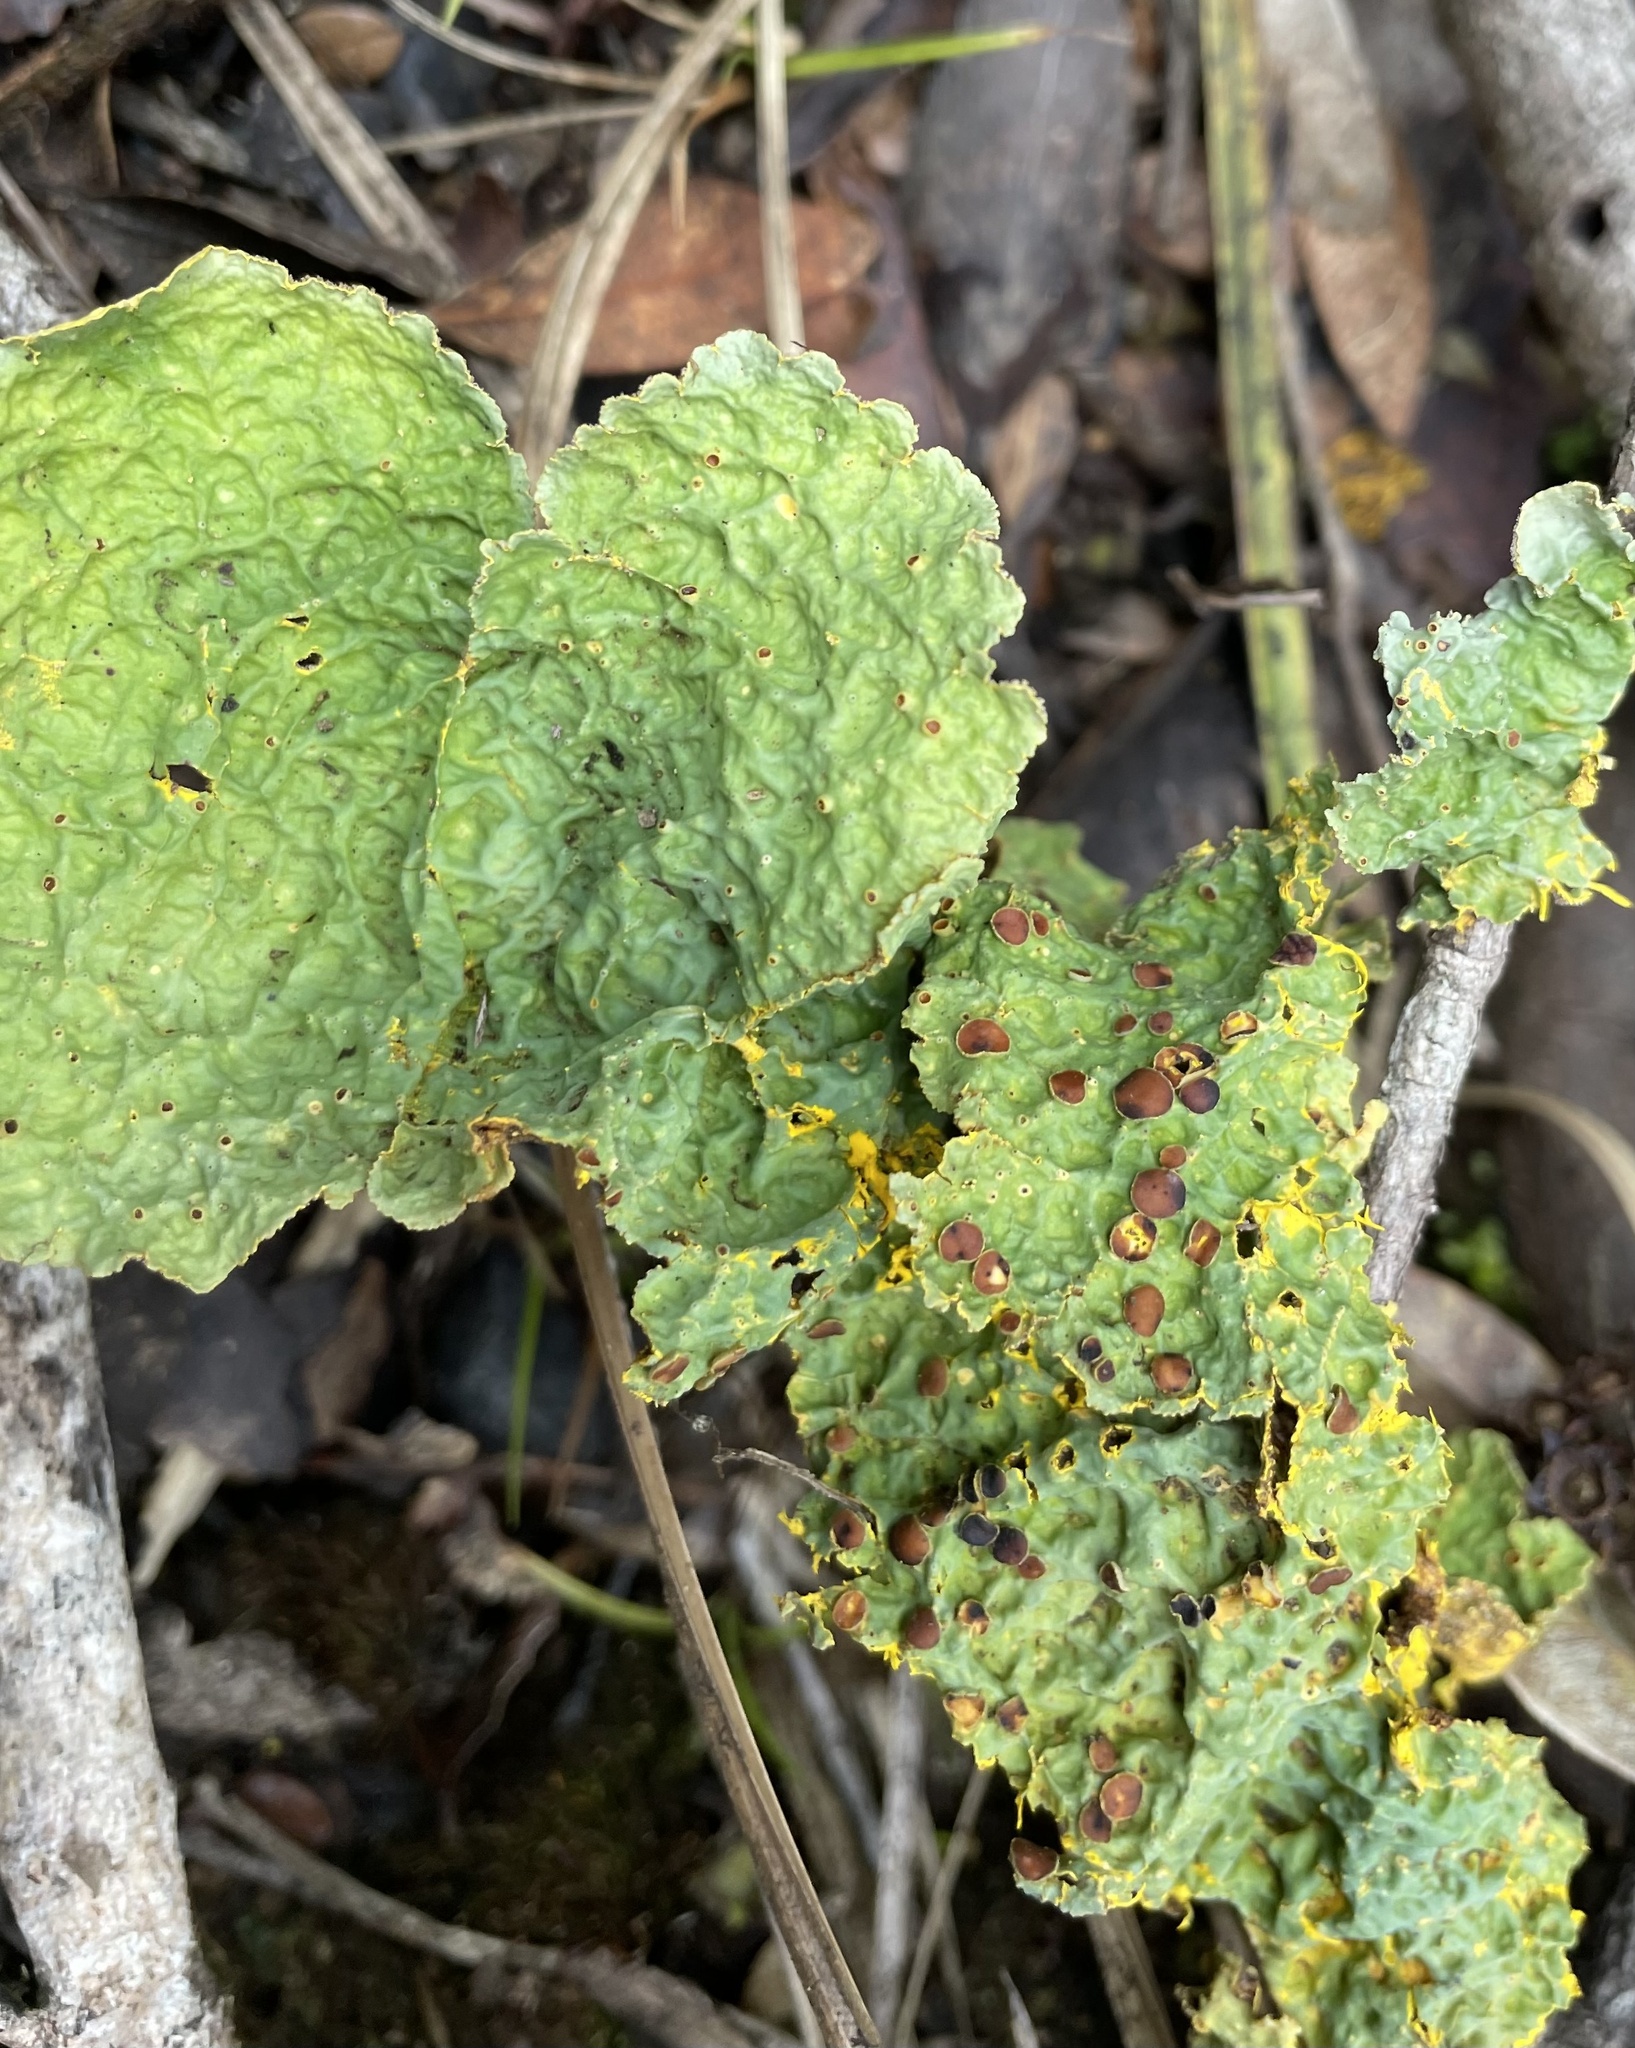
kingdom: Fungi
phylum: Ascomycota
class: Lecanoromycetes
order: Peltigerales
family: Lobariaceae
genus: Yarrumia
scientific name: Yarrumia coronata
